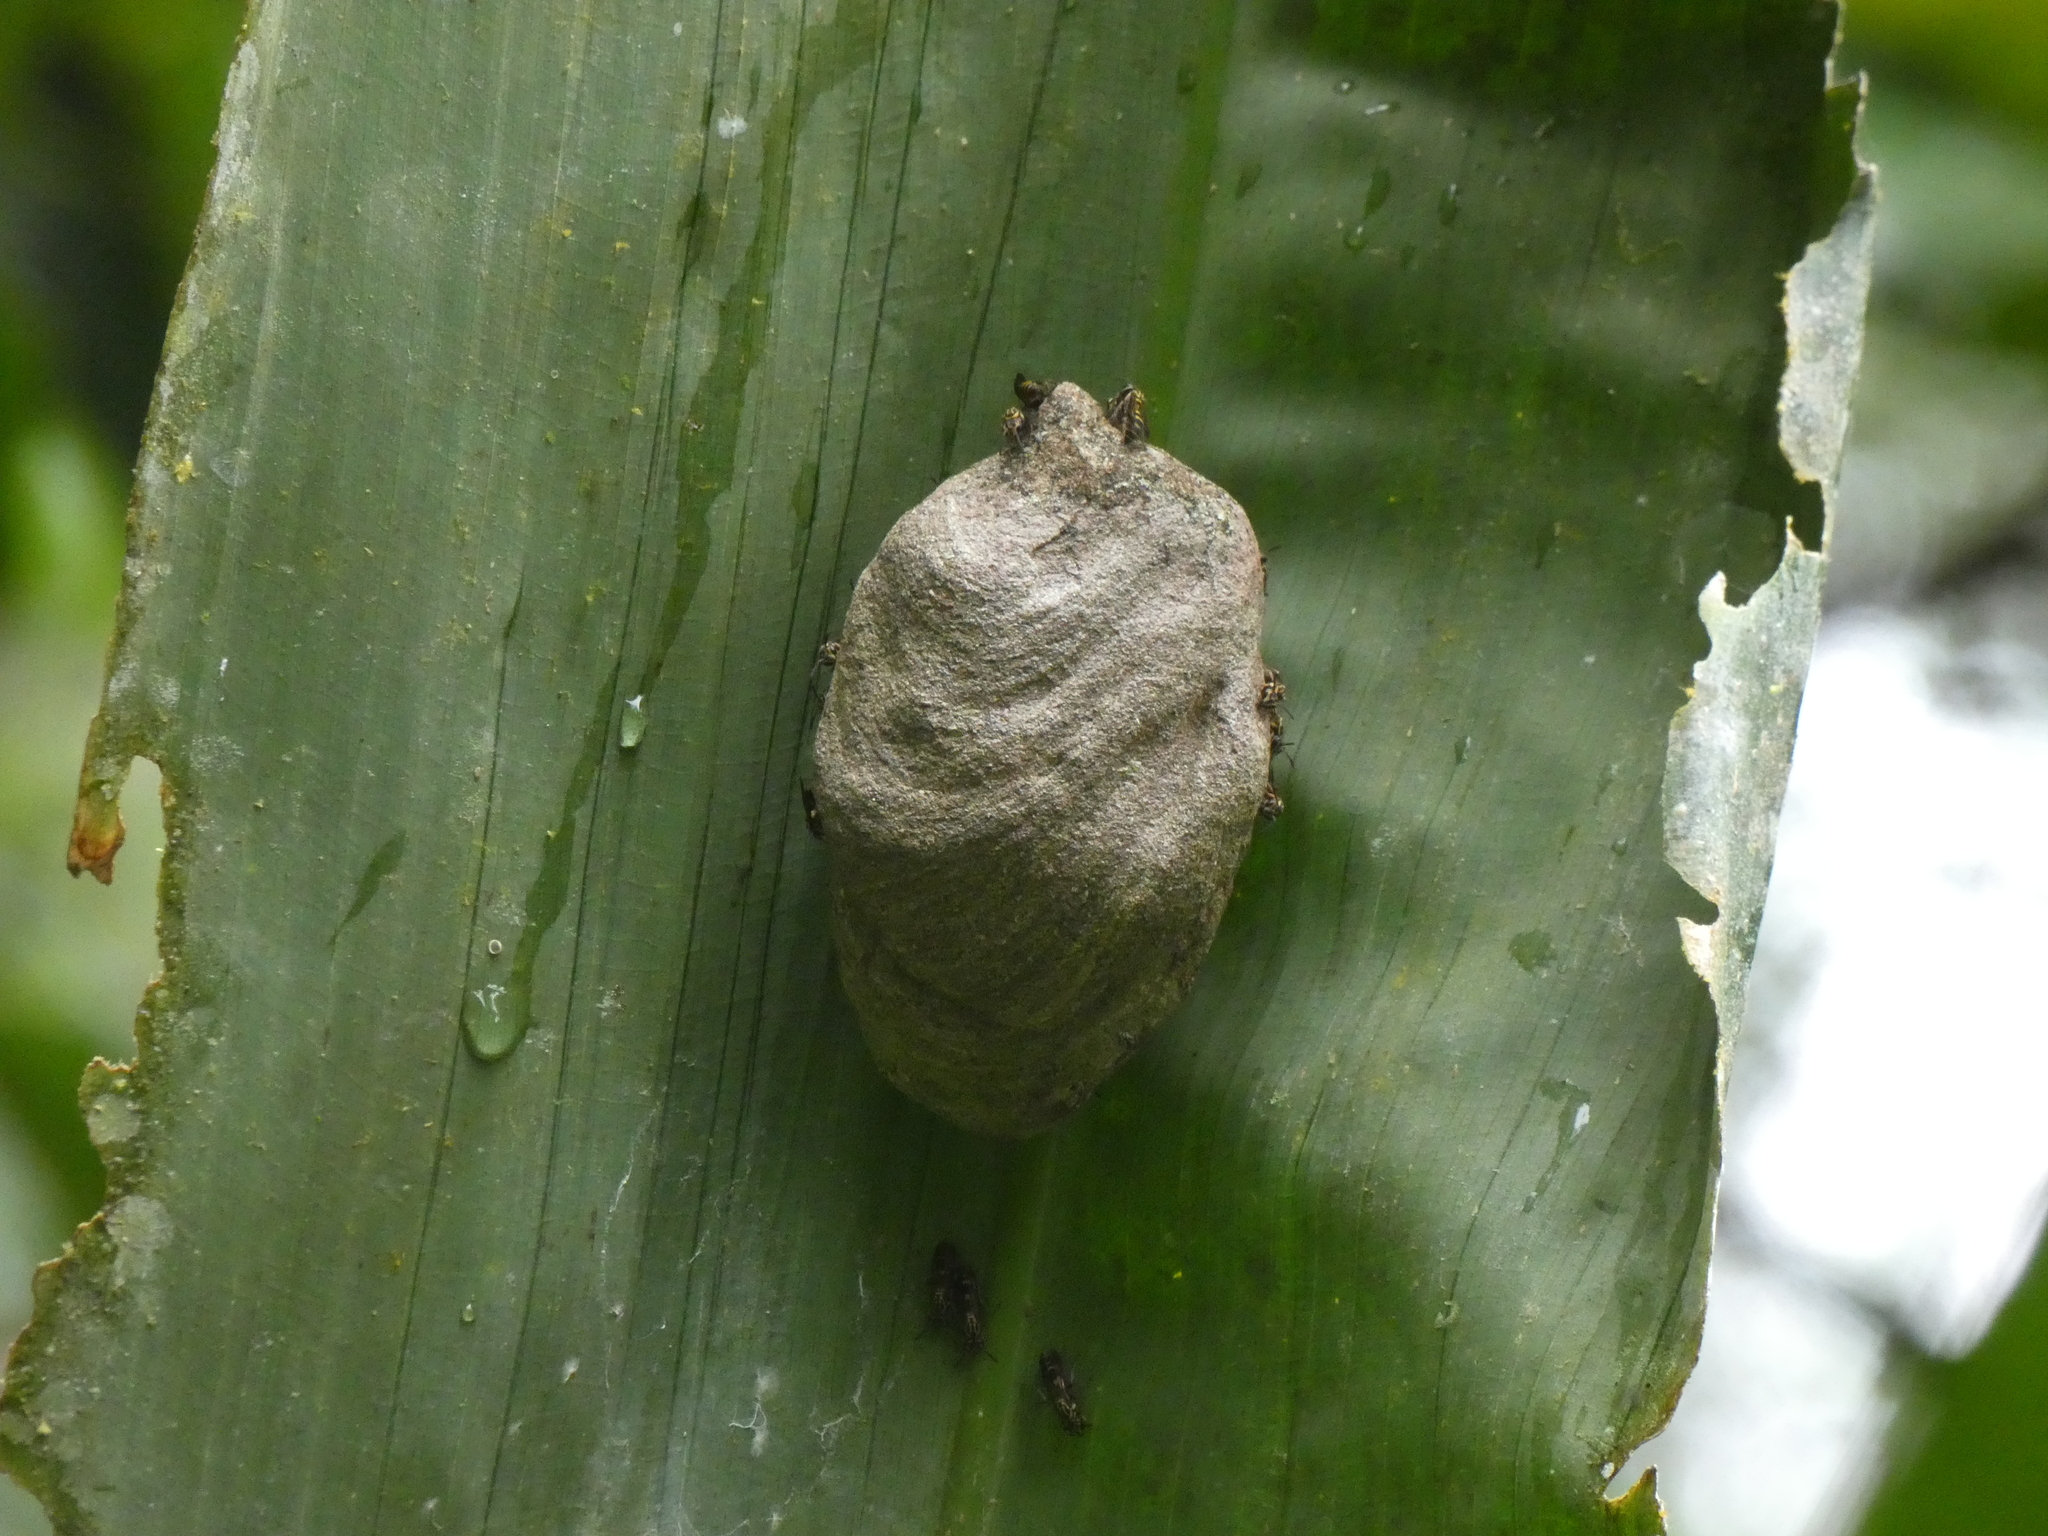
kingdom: Animalia
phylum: Arthropoda
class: Insecta
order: Hymenoptera
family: Eumenidae
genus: Polybia
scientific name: Polybia bistriata
